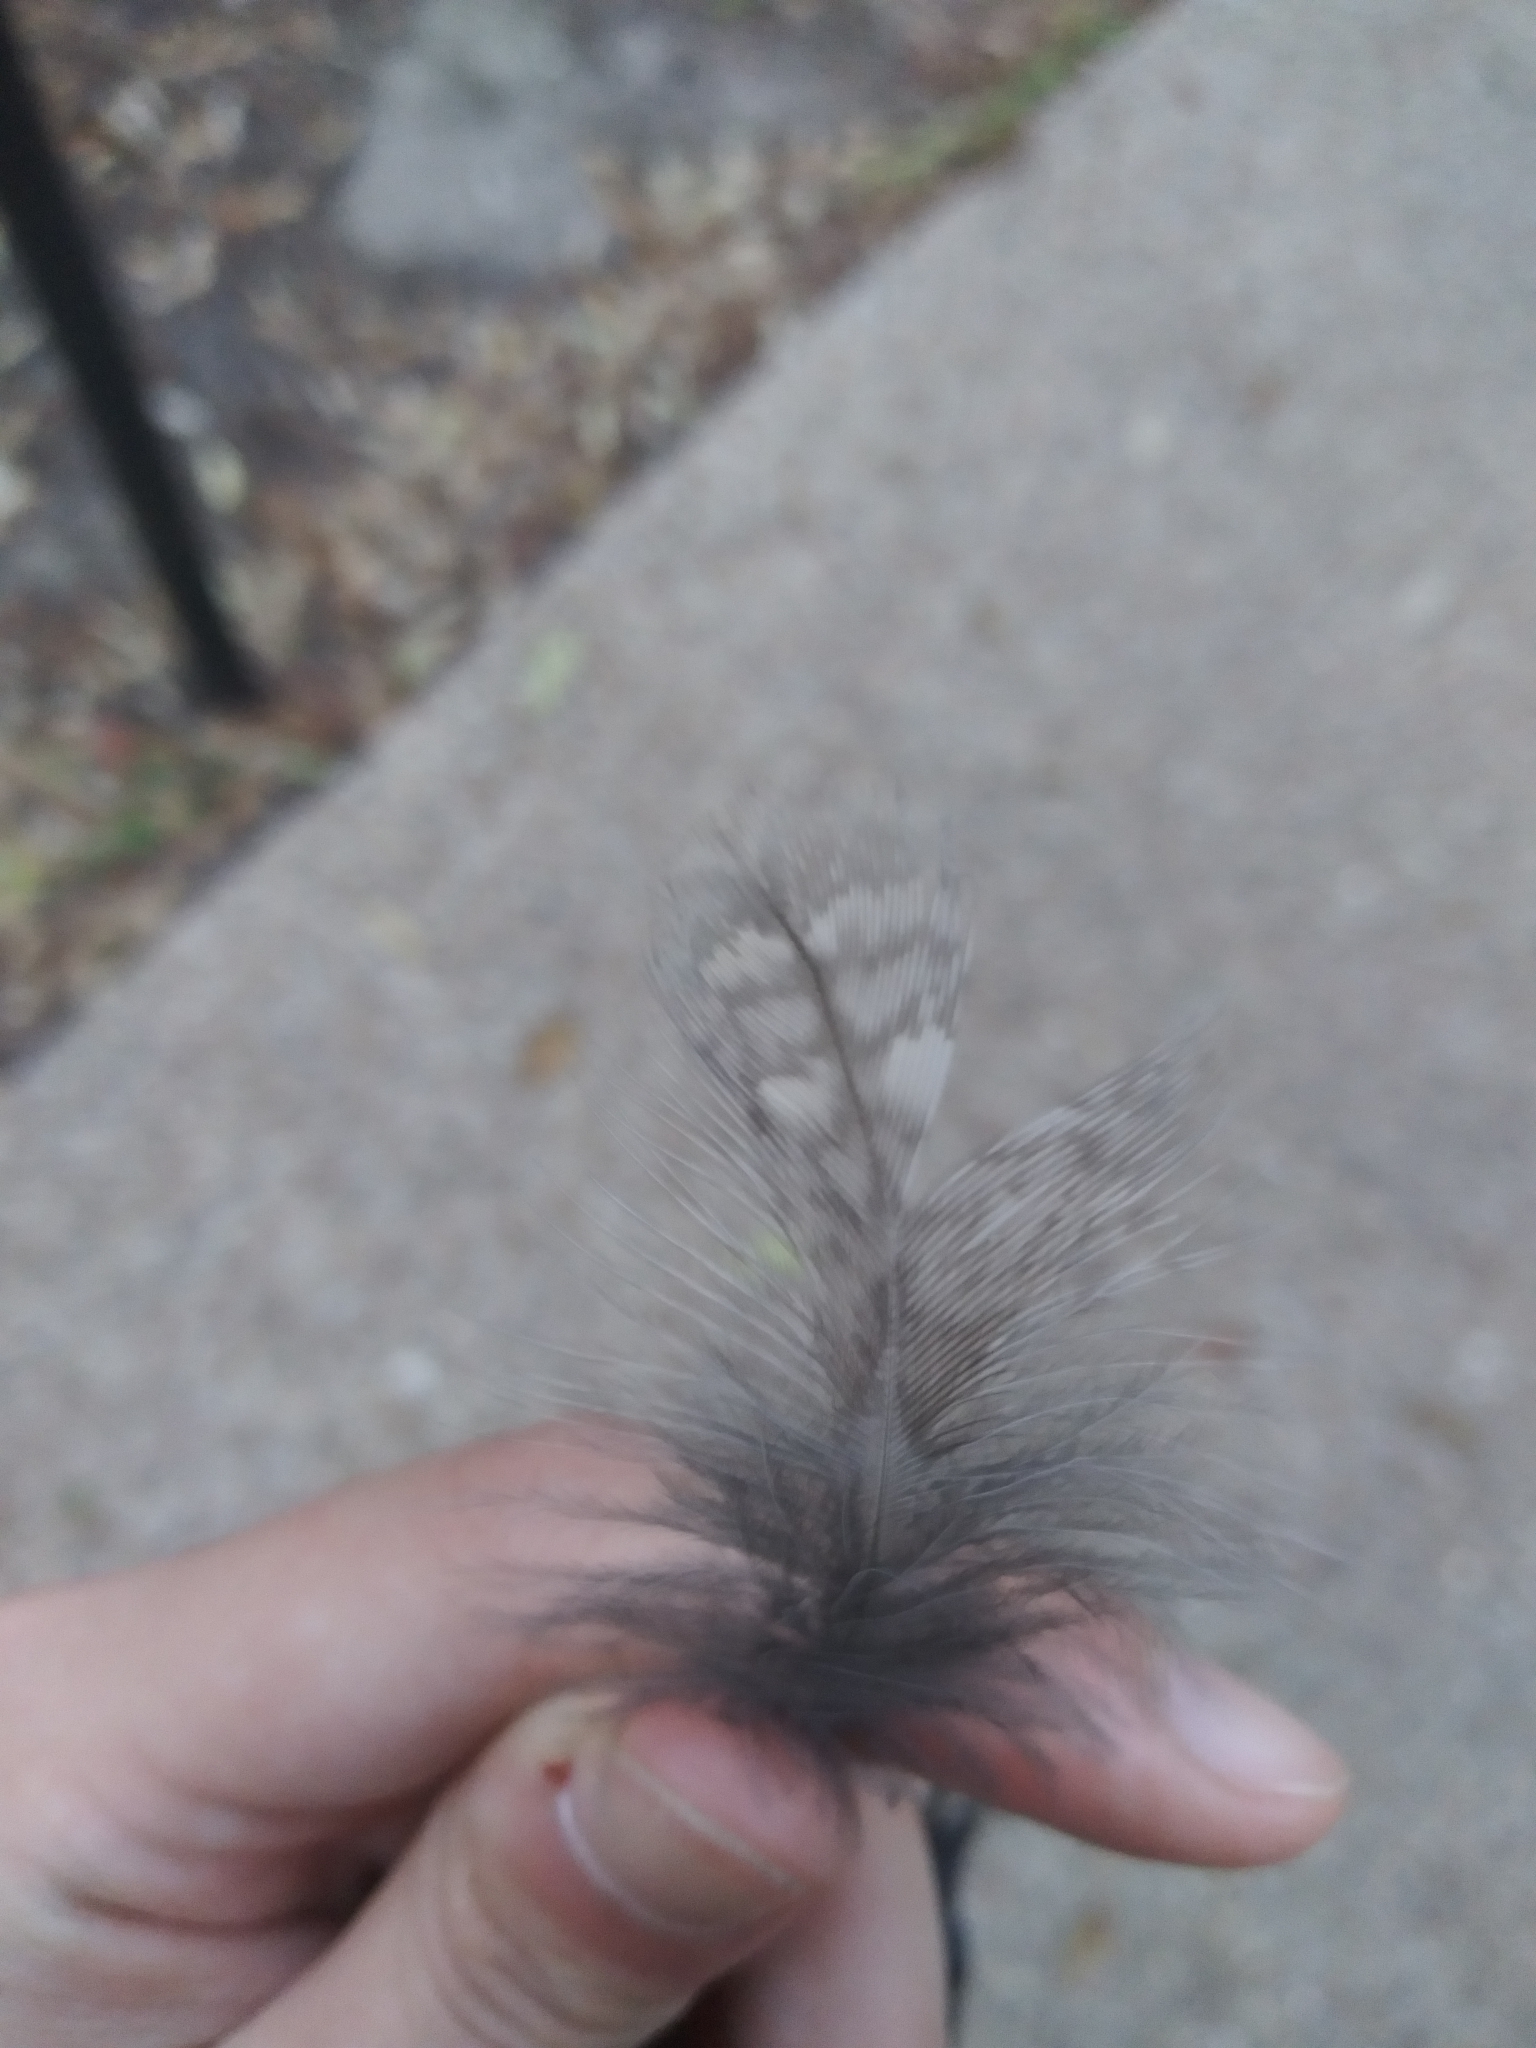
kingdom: Animalia
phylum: Chordata
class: Aves
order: Strigiformes
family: Strigidae
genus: Megascops
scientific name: Megascops asio
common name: Eastern screech-owl
